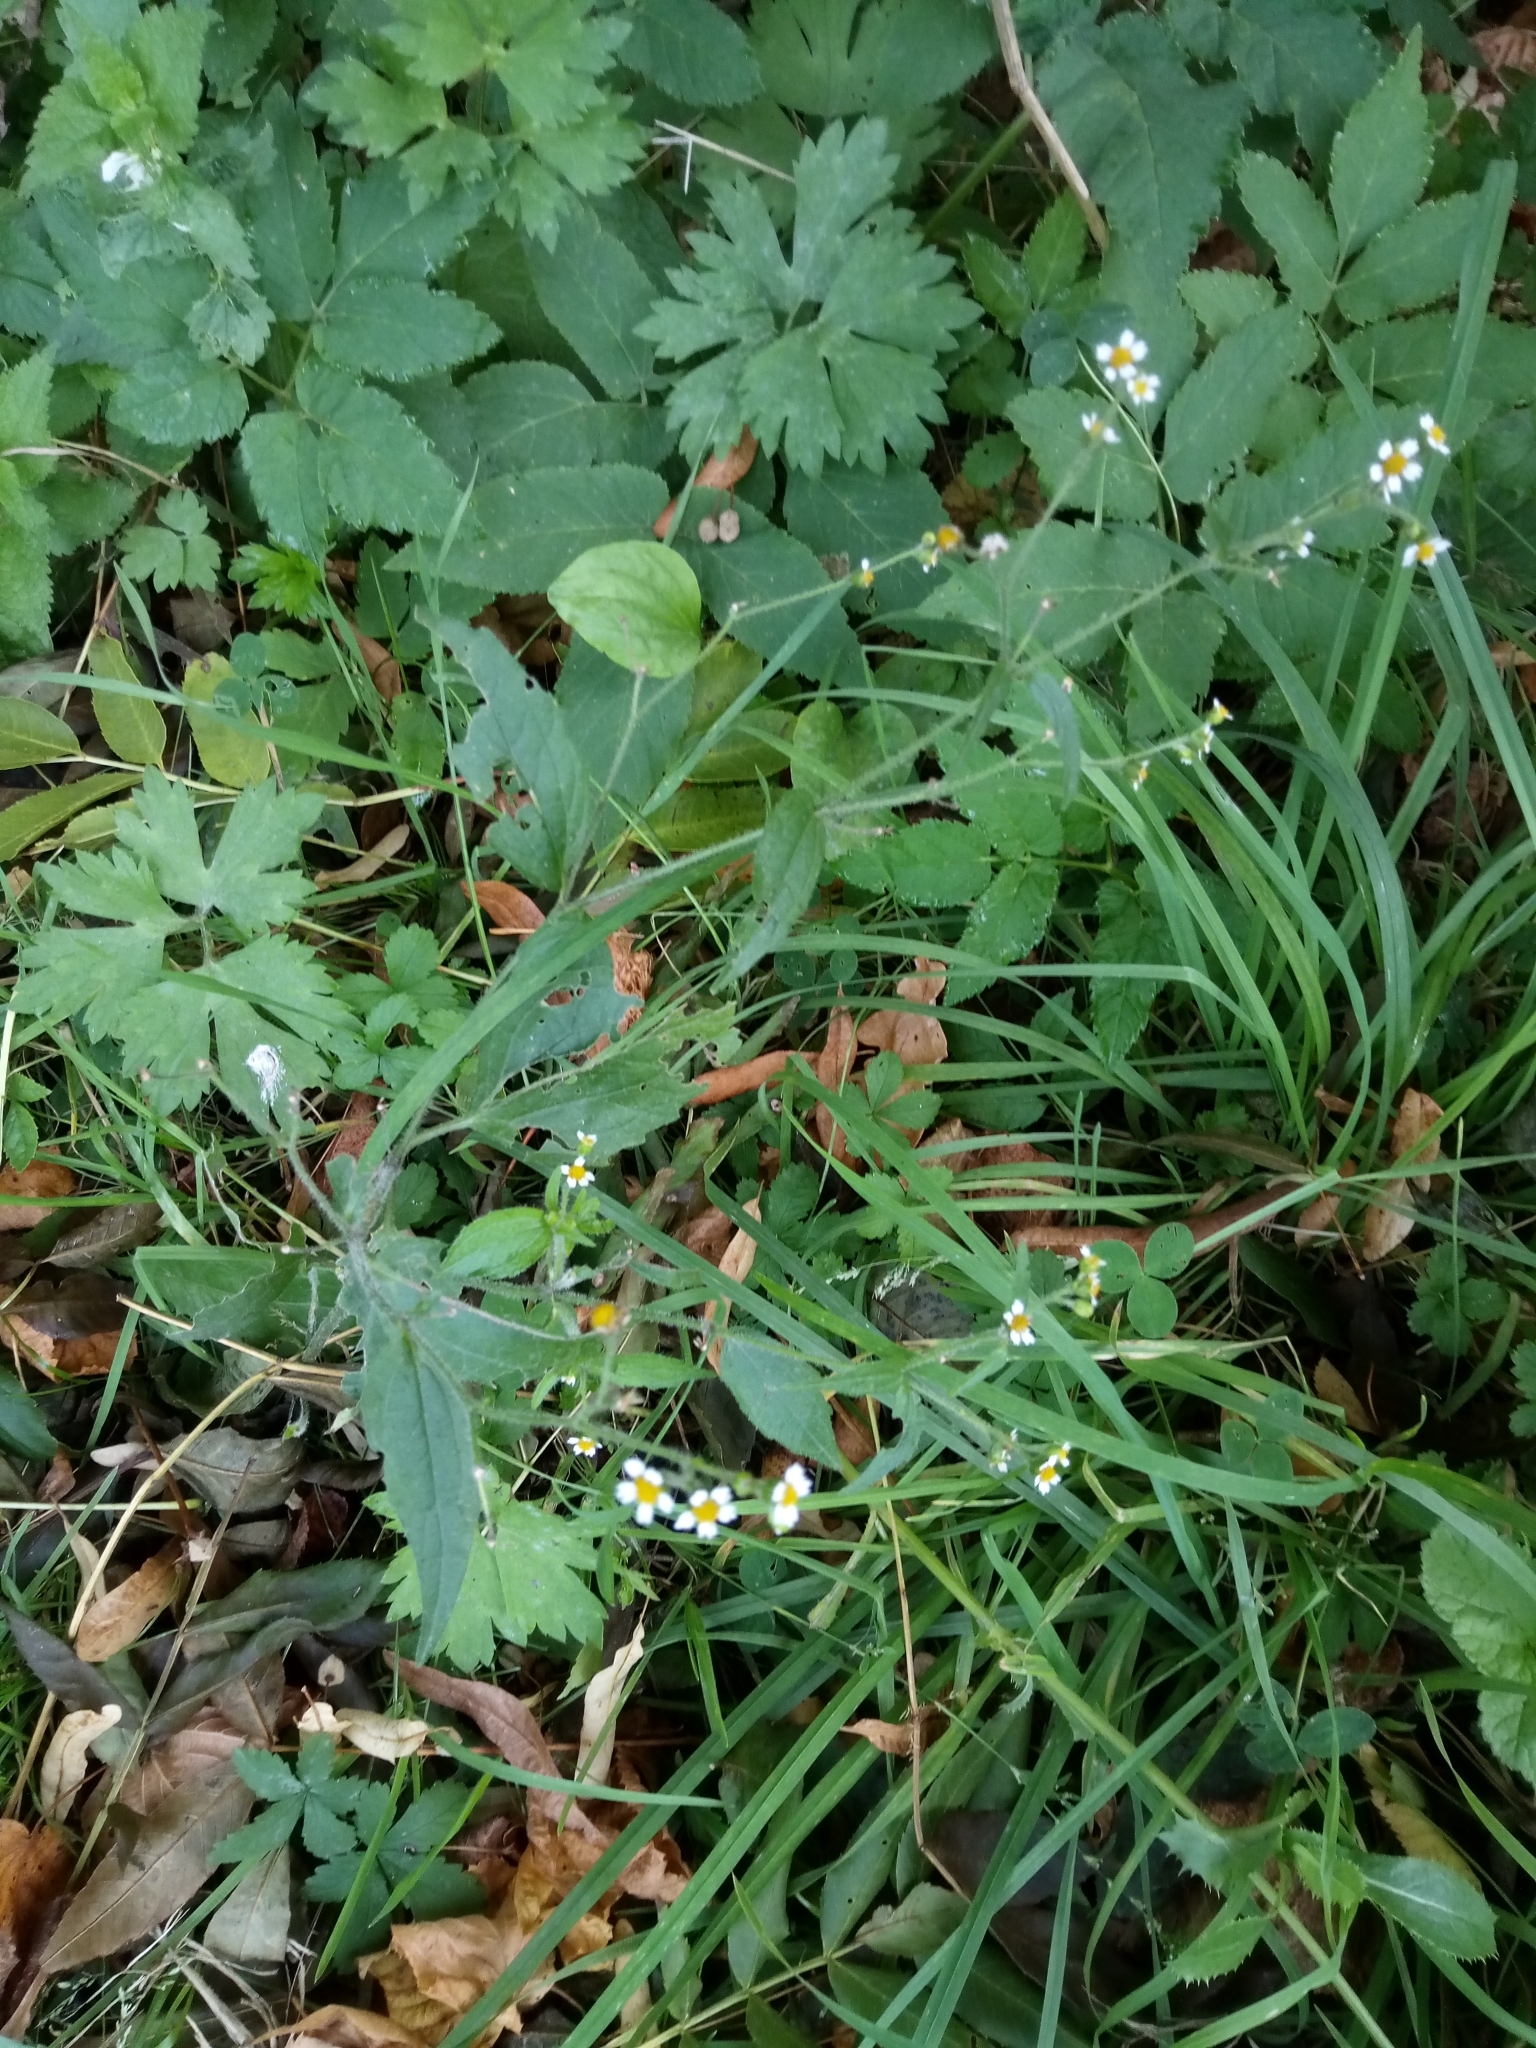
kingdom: Plantae
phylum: Tracheophyta
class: Magnoliopsida
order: Asterales
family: Asteraceae
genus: Galinsoga
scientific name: Galinsoga quadriradiata
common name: Shaggy soldier
